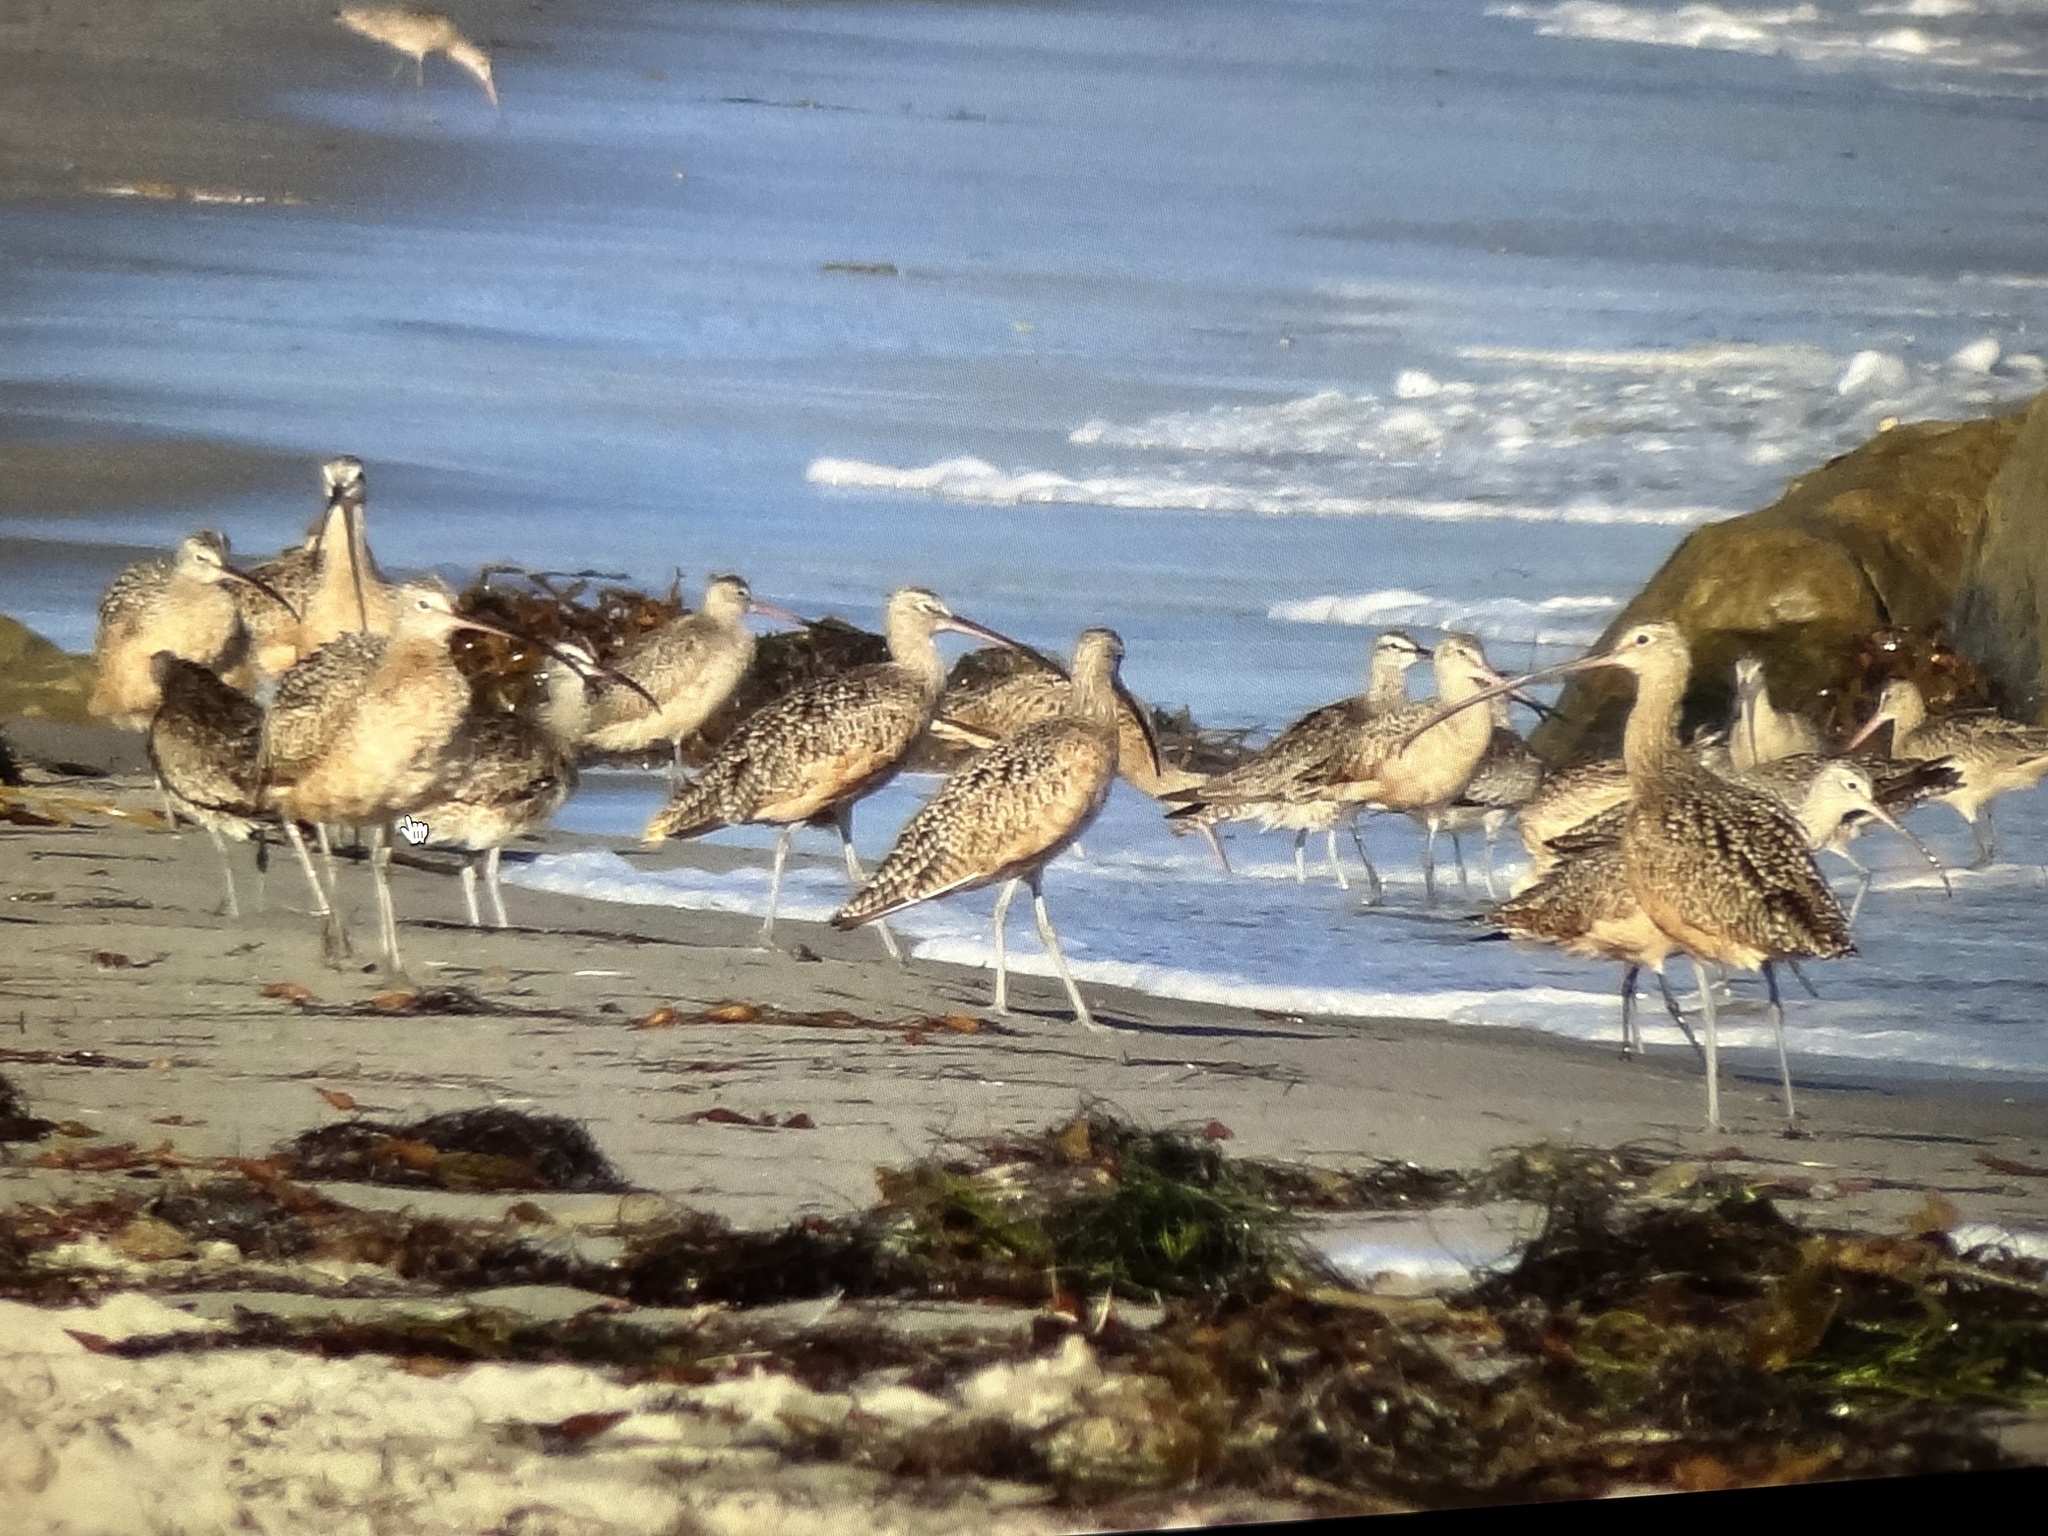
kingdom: Animalia
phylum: Chordata
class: Aves
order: Charadriiformes
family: Scolopacidae
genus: Numenius
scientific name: Numenius americanus
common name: Long-billed curlew
